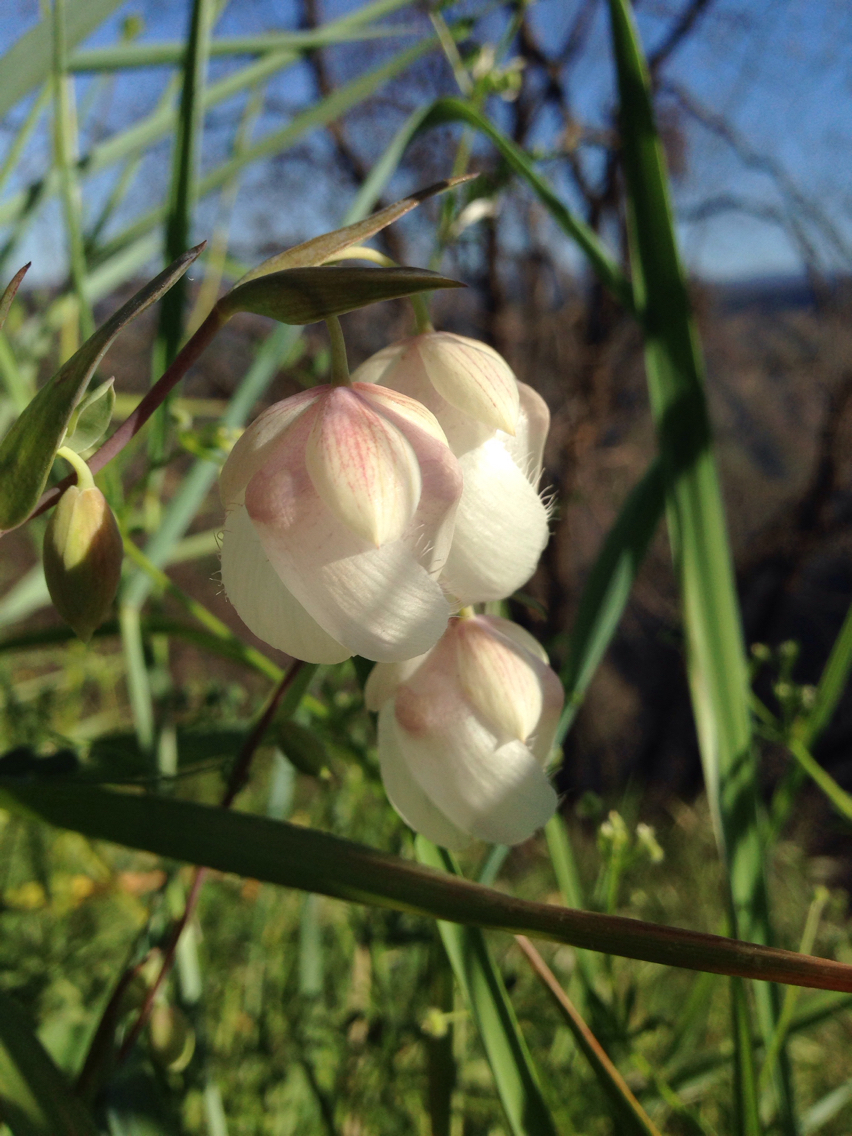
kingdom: Plantae
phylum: Tracheophyta
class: Liliopsida
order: Liliales
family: Liliaceae
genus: Calochortus
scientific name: Calochortus albus
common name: Fairy-lantern
